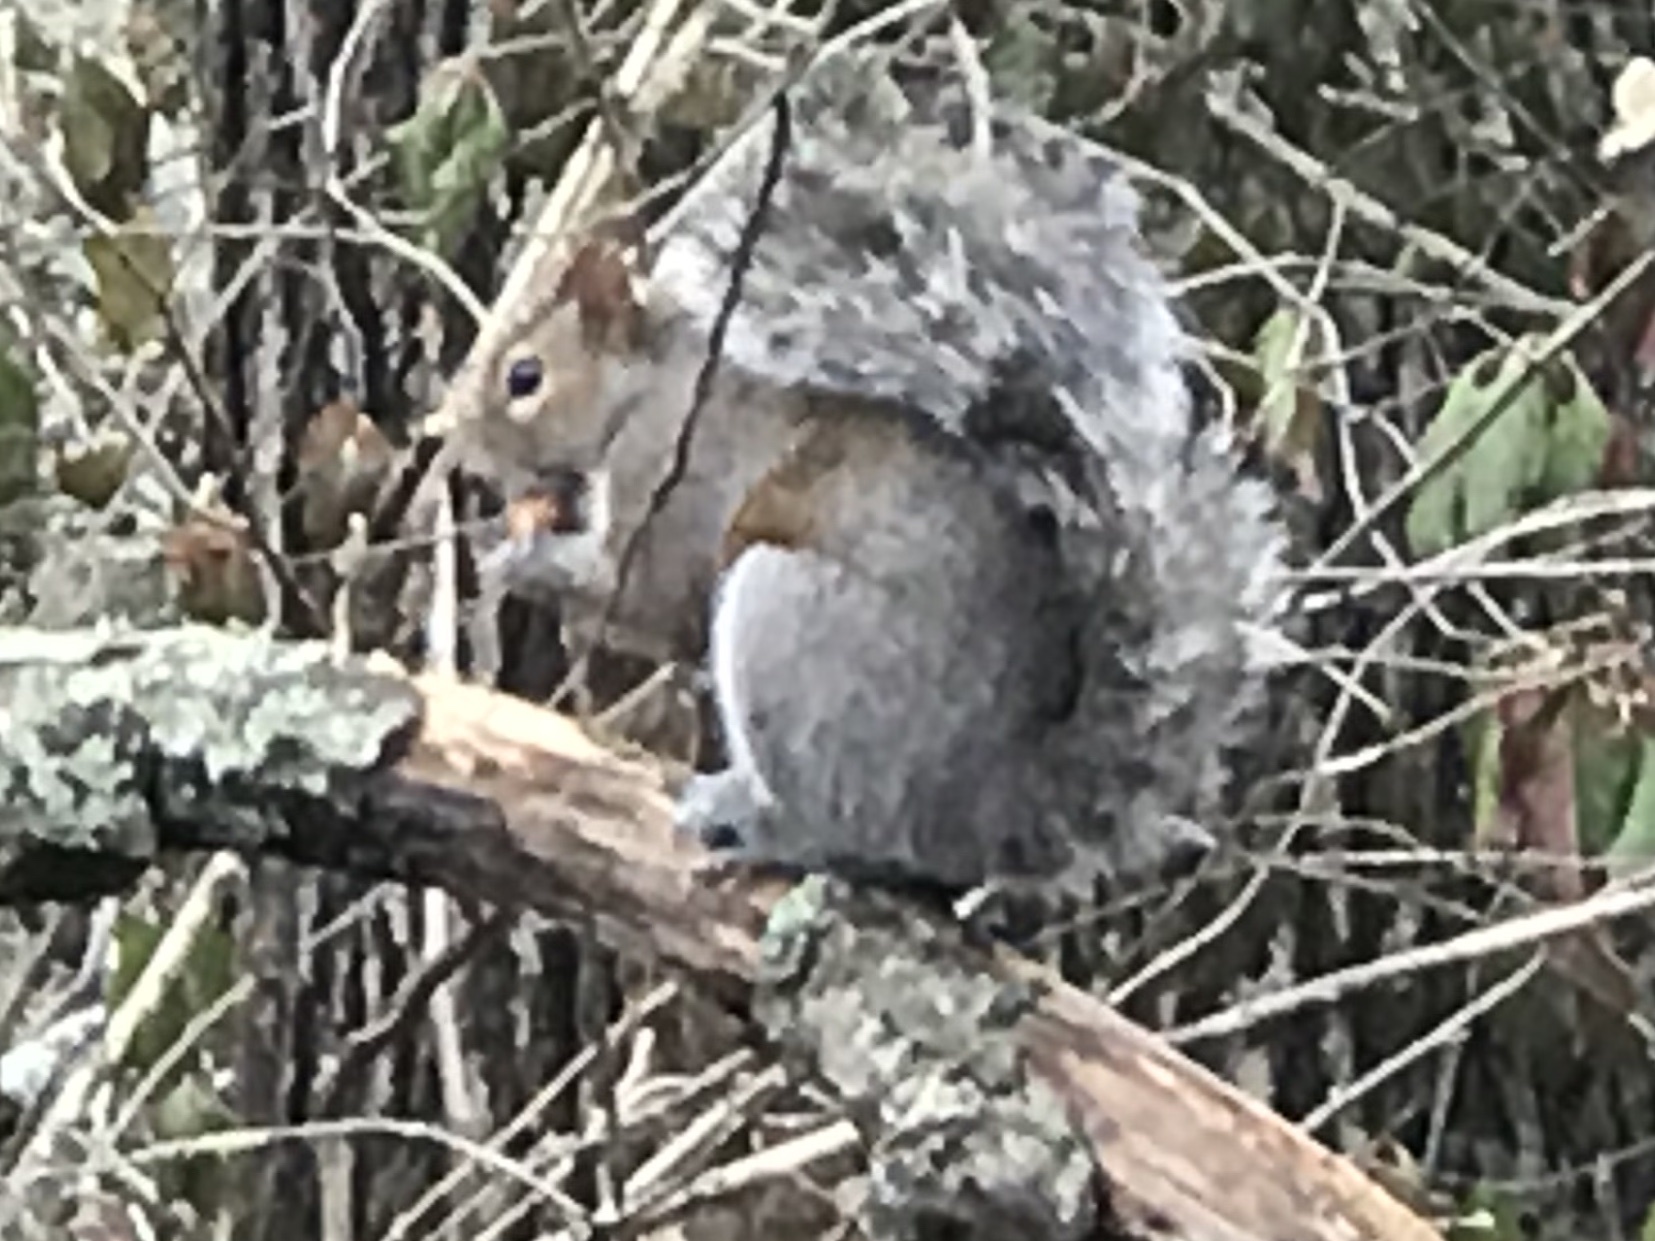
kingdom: Animalia
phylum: Chordata
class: Mammalia
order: Rodentia
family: Sciuridae
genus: Sciurus
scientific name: Sciurus carolinensis
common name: Eastern gray squirrel
